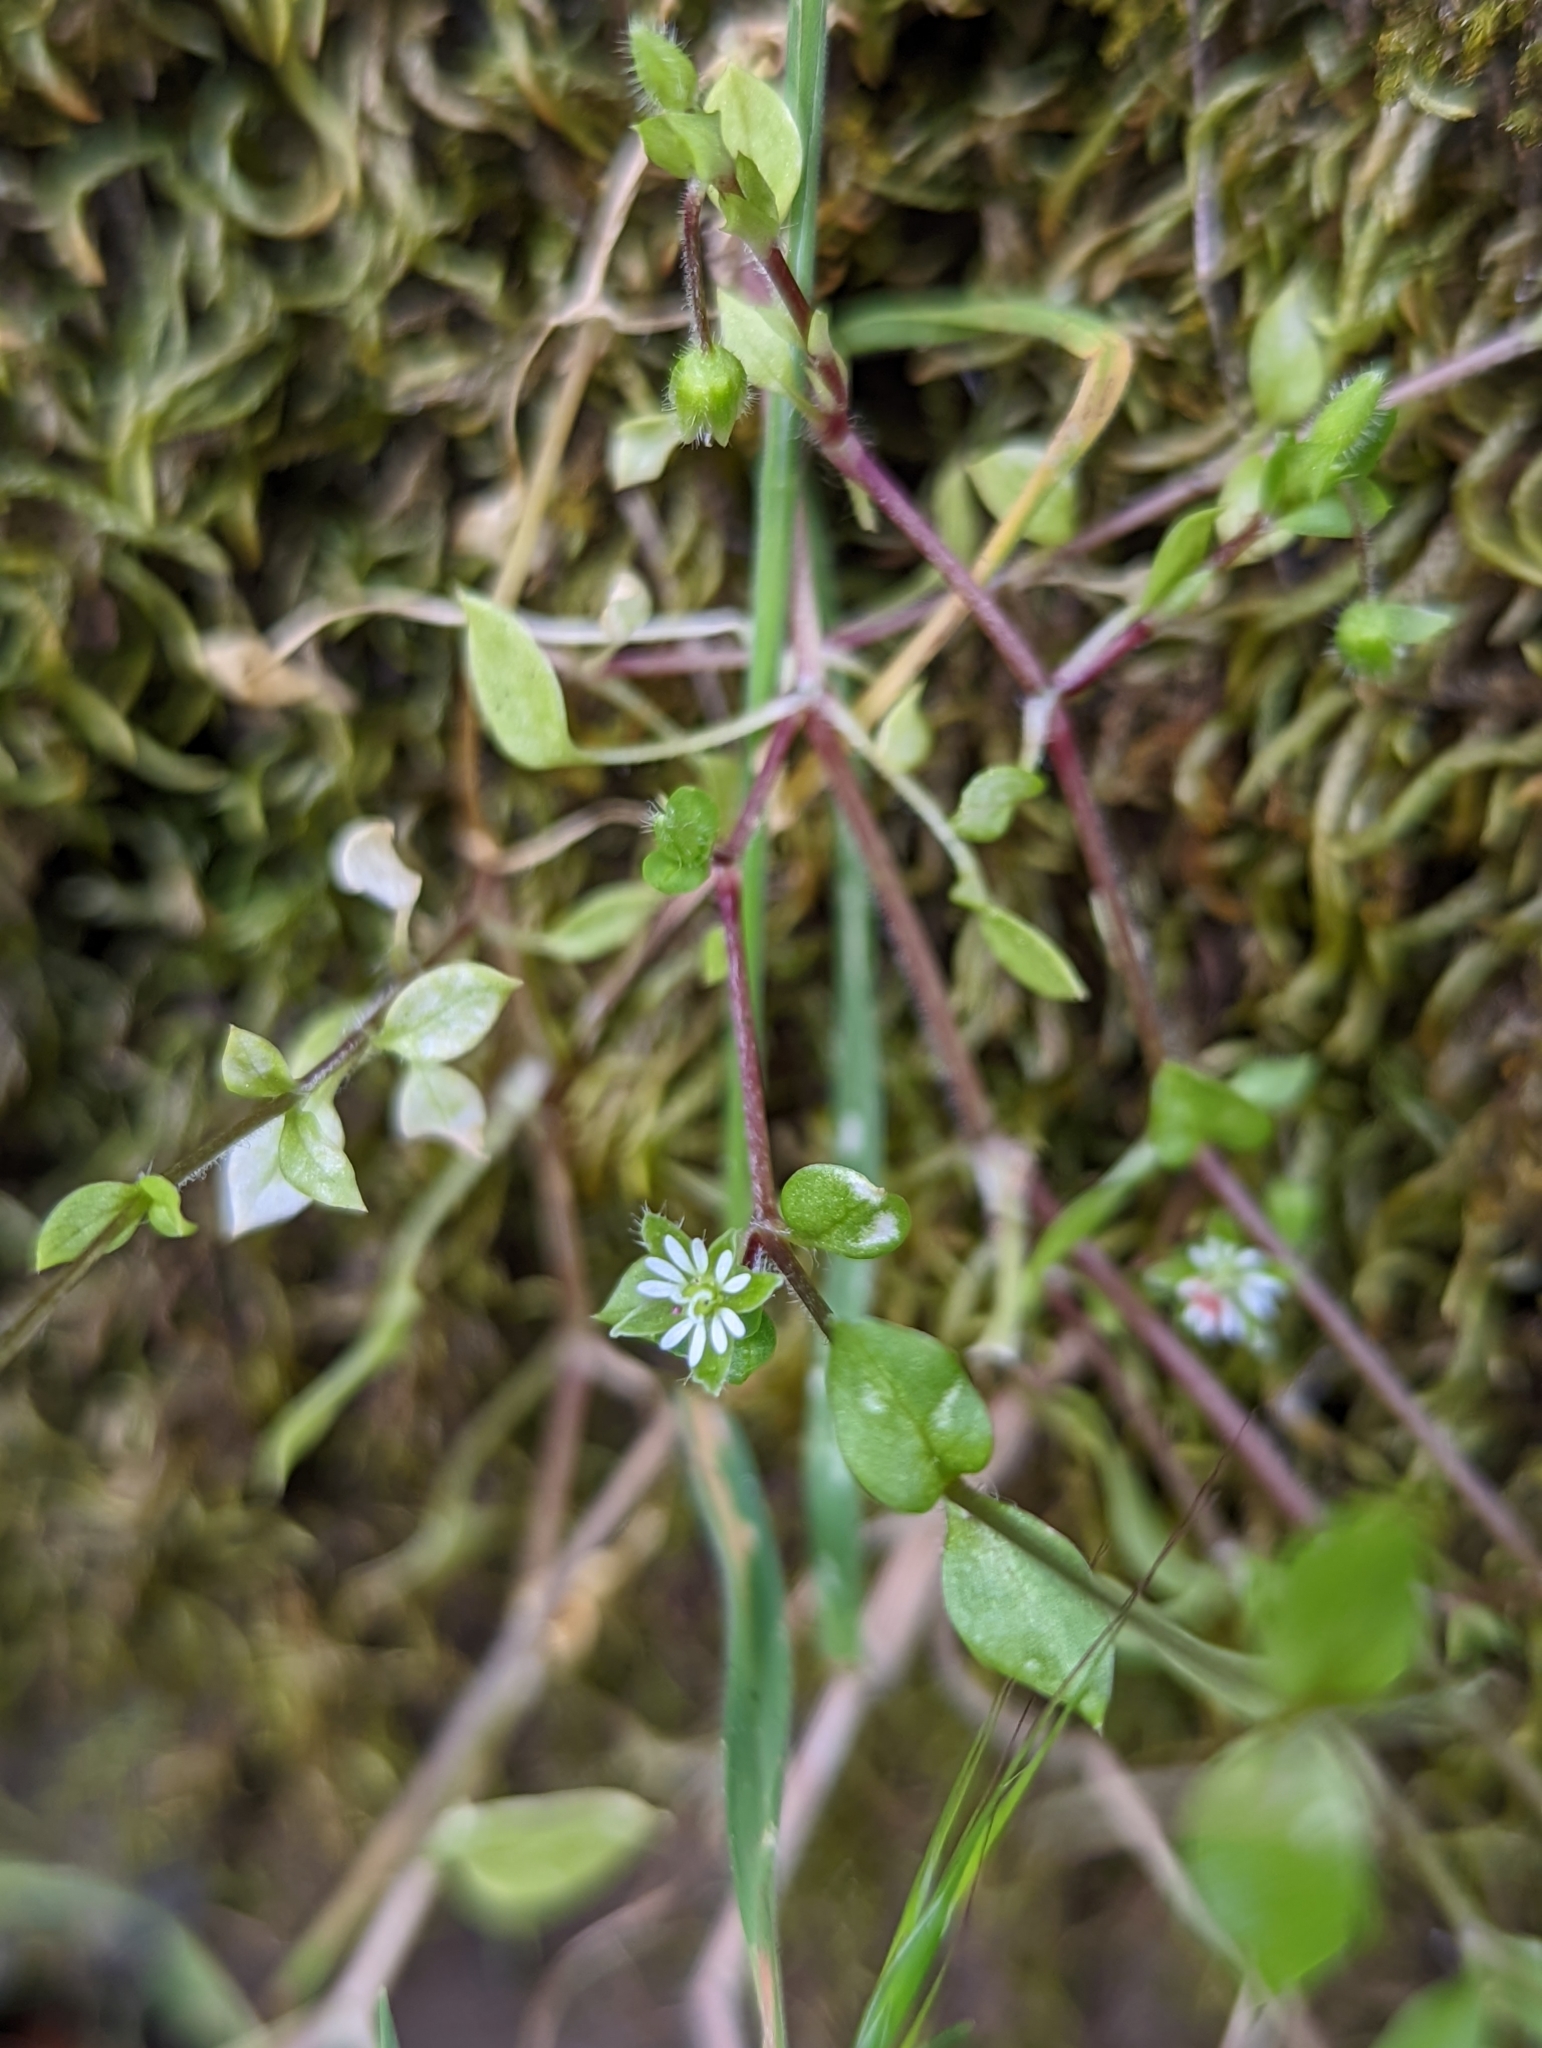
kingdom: Plantae
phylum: Tracheophyta
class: Magnoliopsida
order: Caryophyllales
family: Caryophyllaceae
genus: Stellaria
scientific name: Stellaria media
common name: Common chickweed
